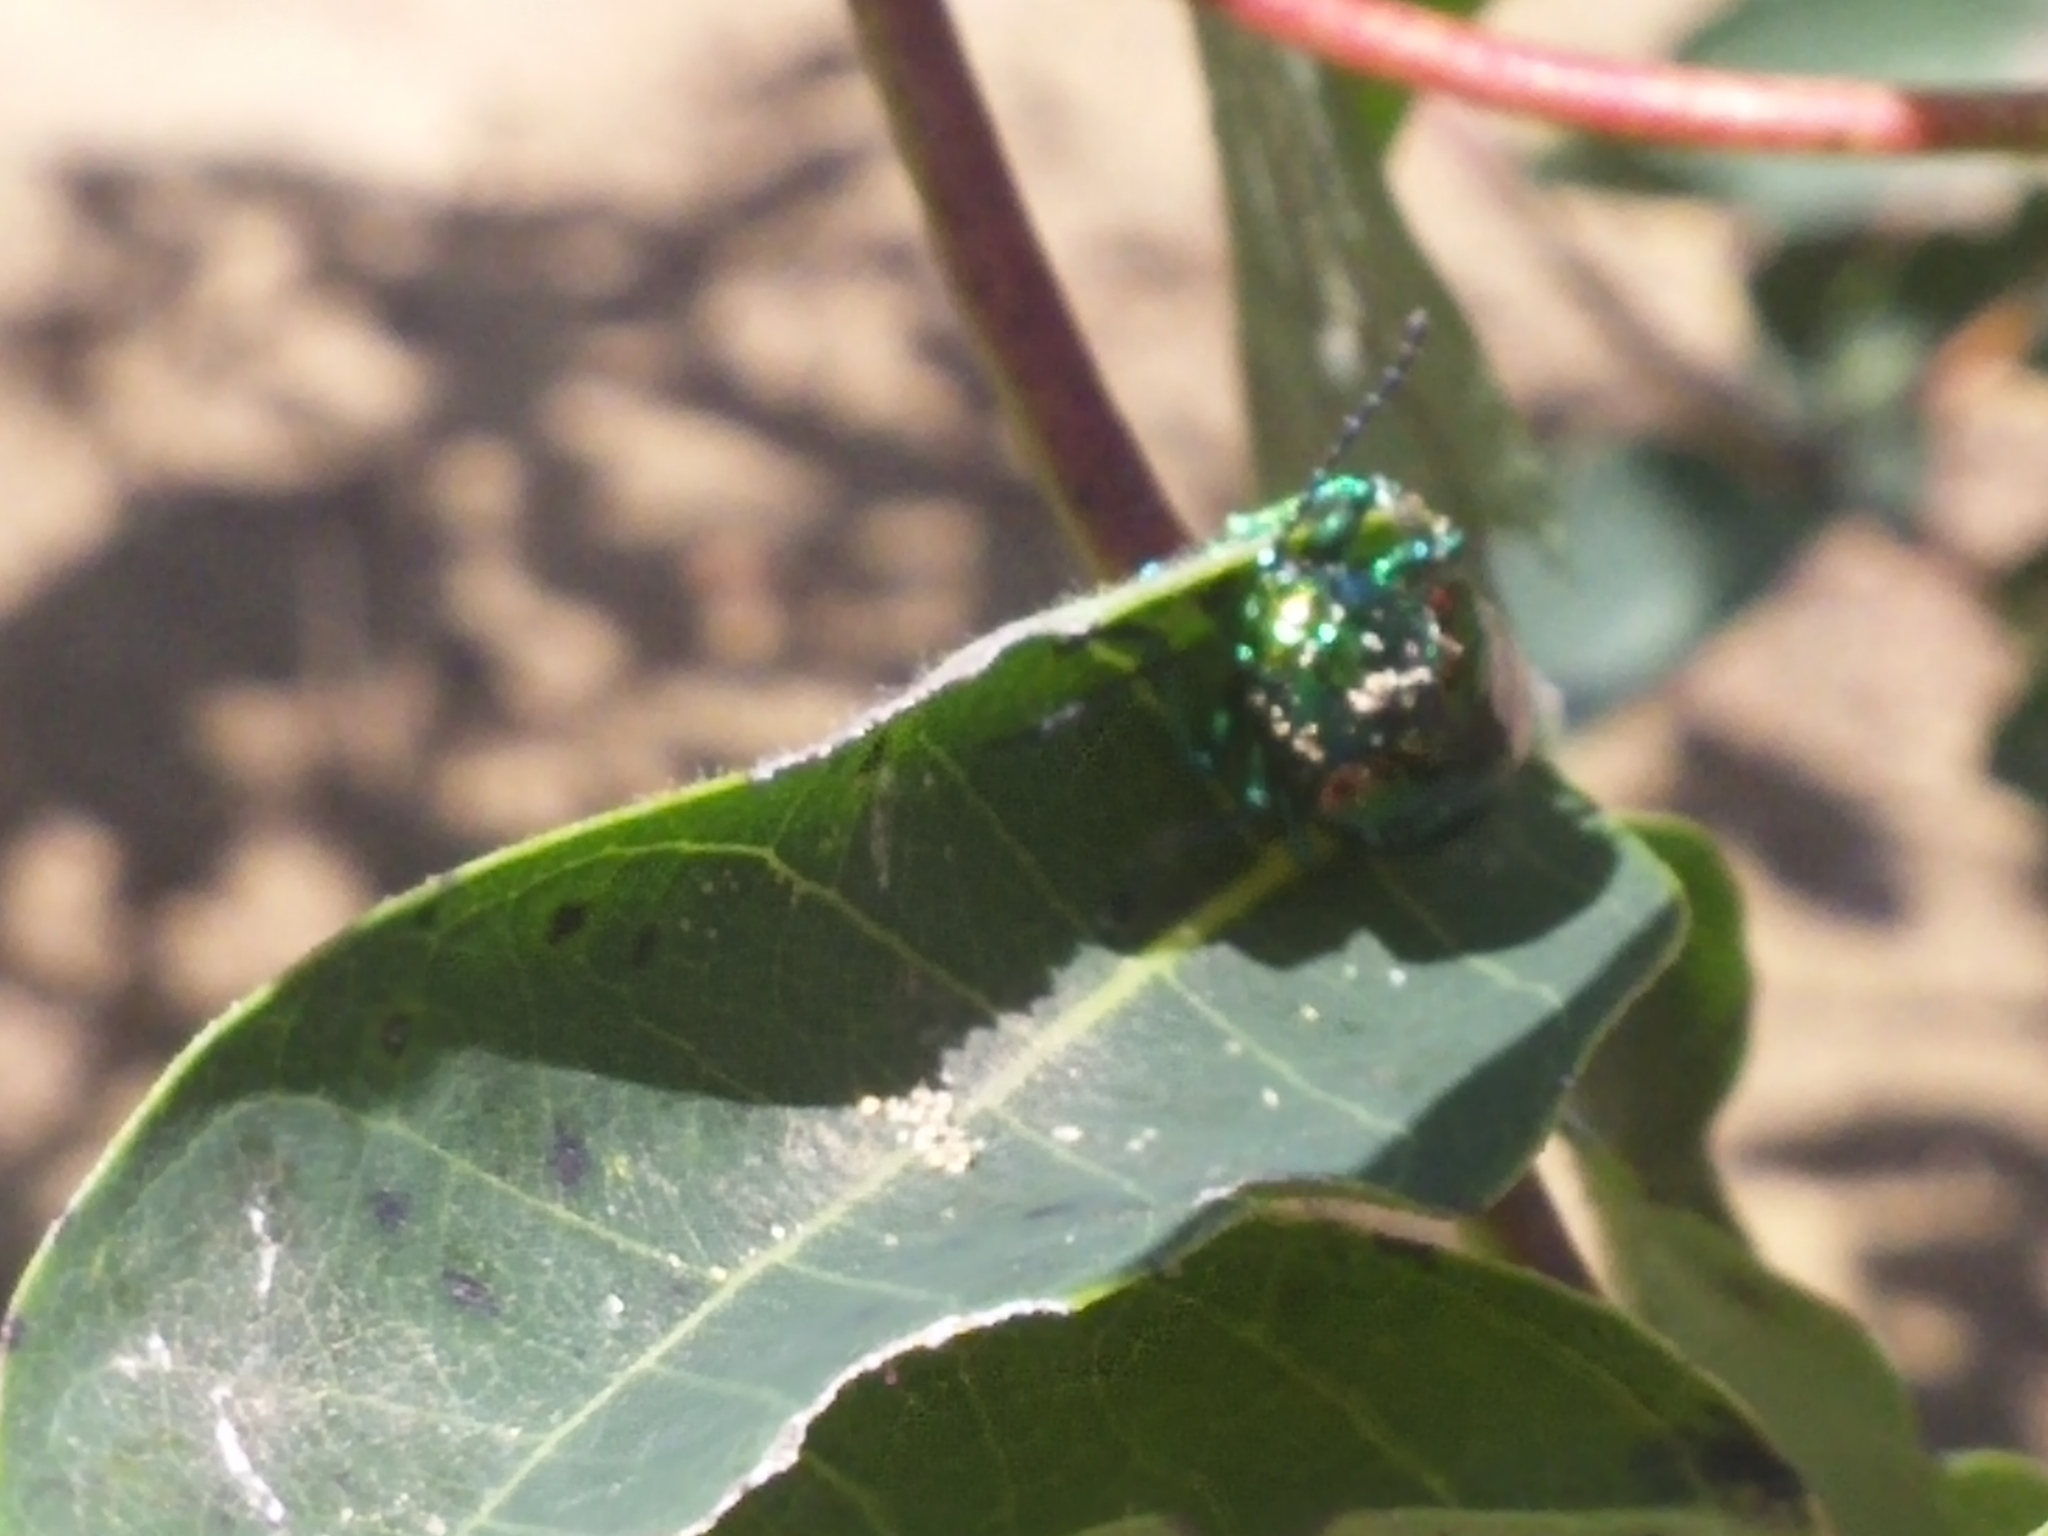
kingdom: Animalia
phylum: Arthropoda
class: Insecta
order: Coleoptera
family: Chrysomelidae
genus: Chrysochus
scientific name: Chrysochus auratus
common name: Dogbane leaf beetle
